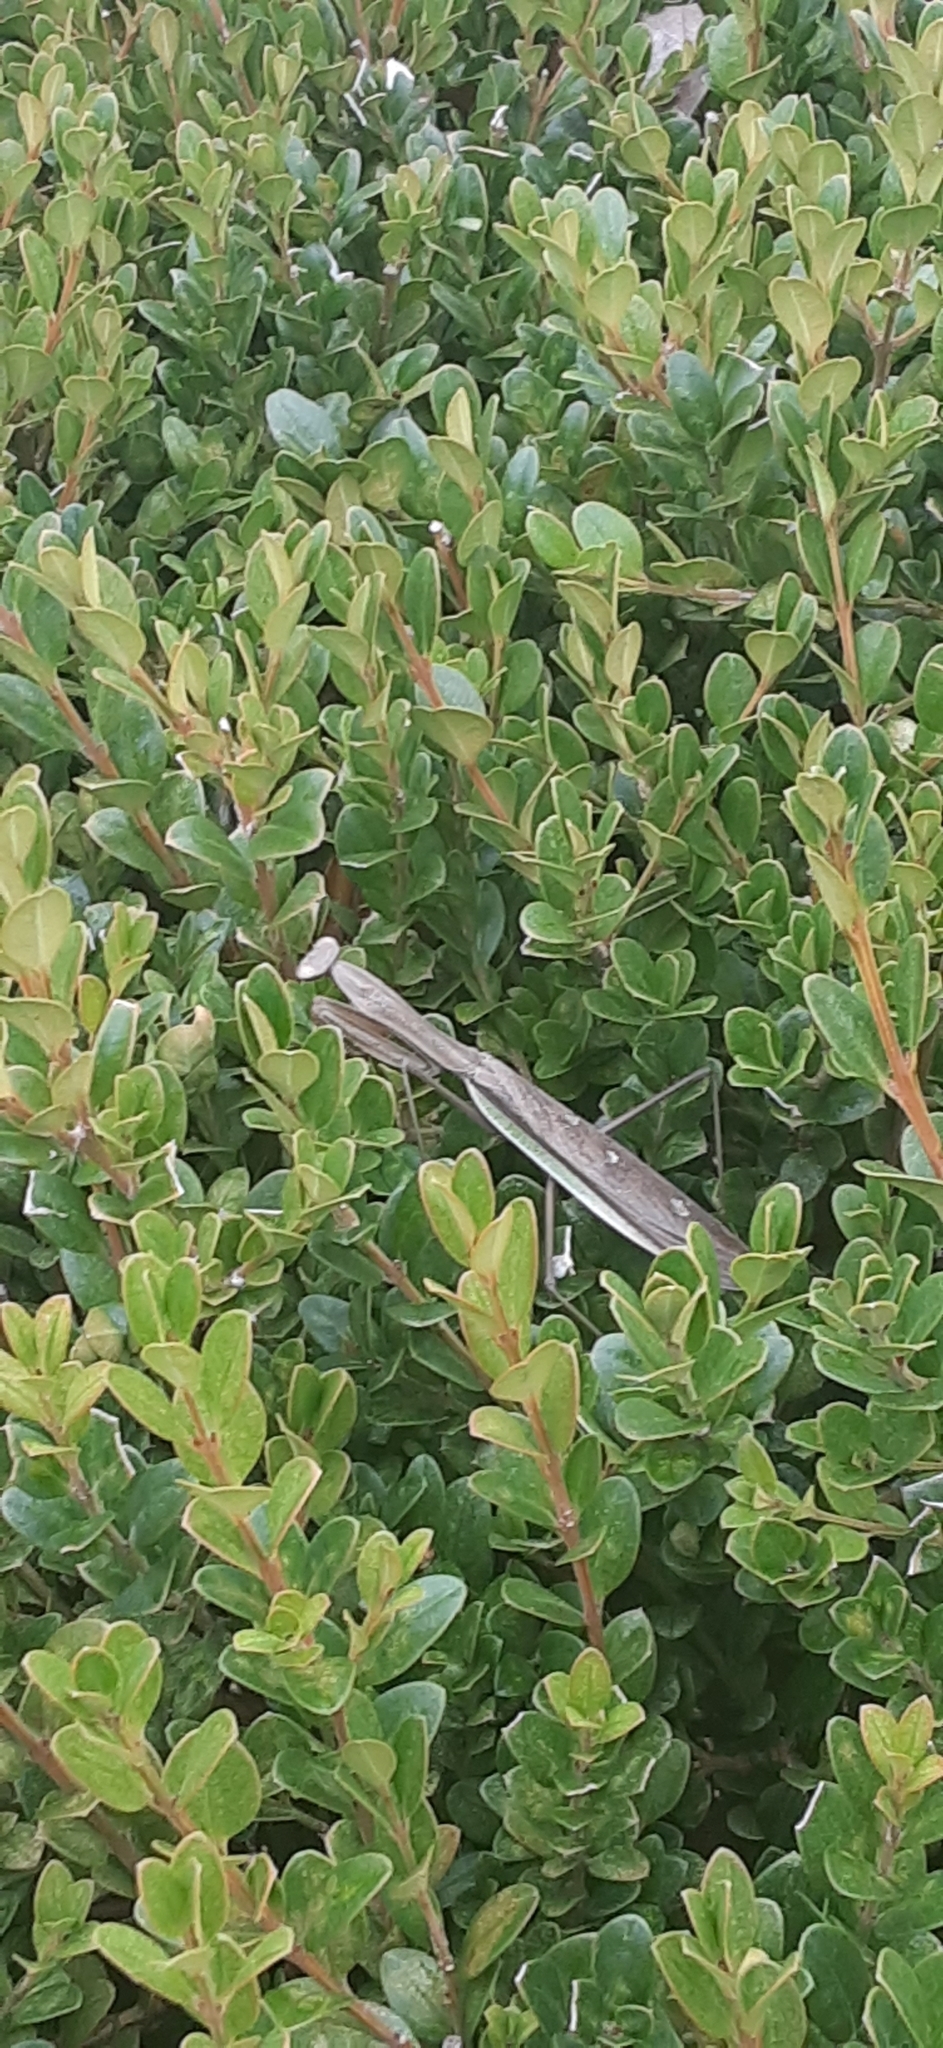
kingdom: Animalia
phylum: Arthropoda
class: Insecta
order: Mantodea
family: Mantidae
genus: Tenodera
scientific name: Tenodera sinensis
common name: Chinese mantis
